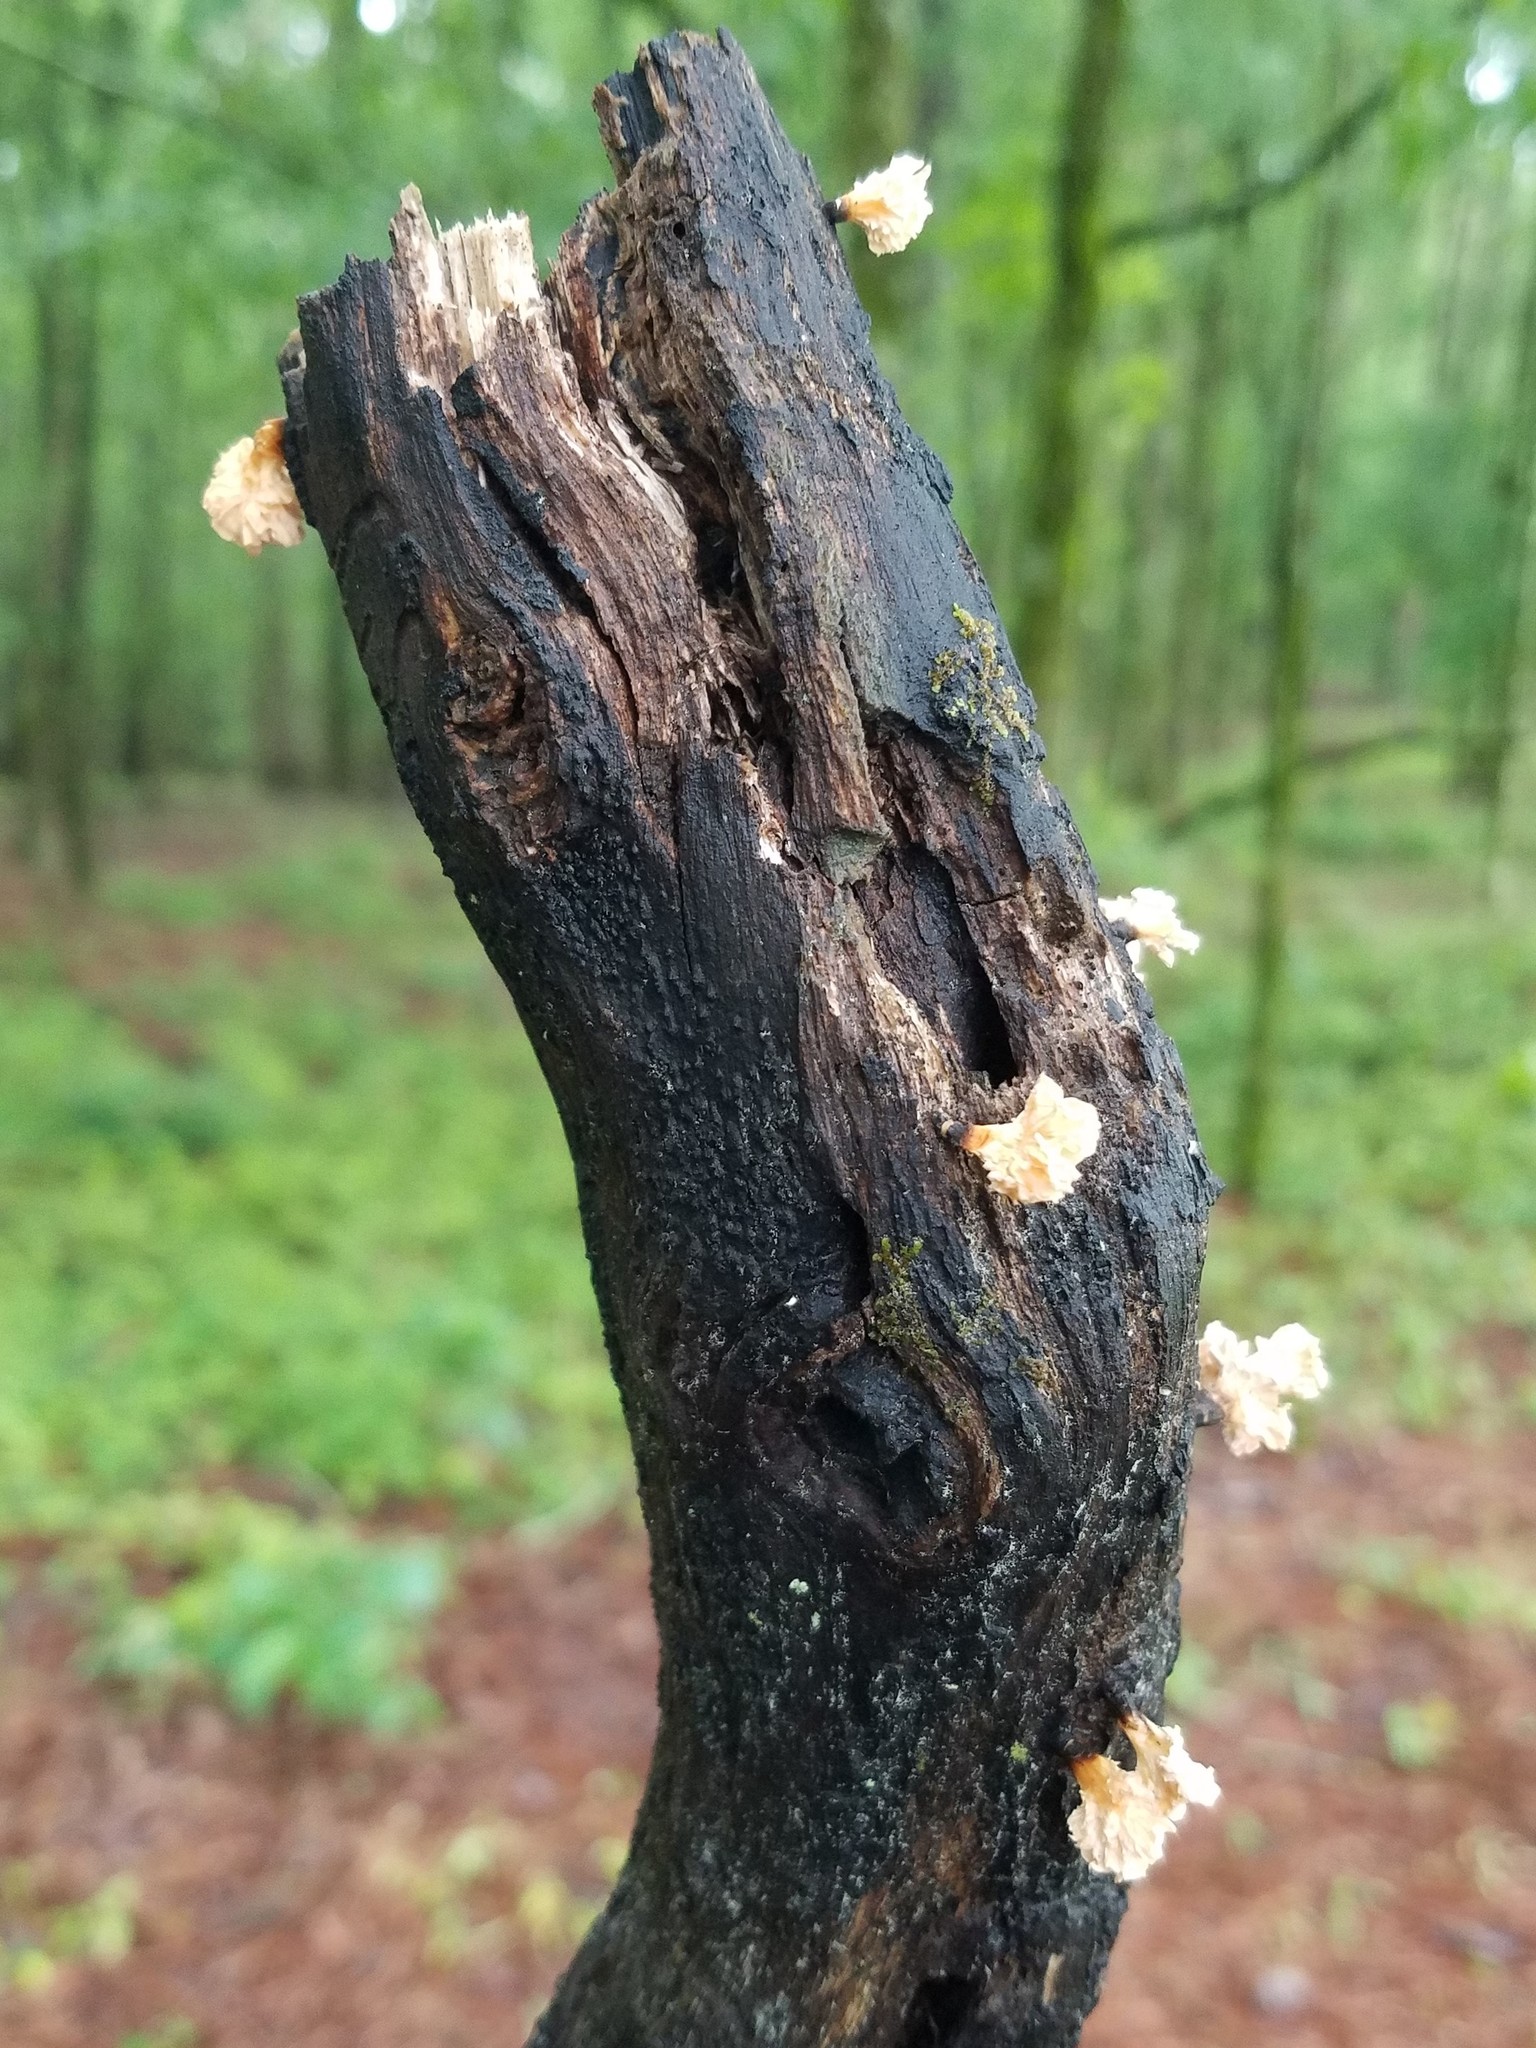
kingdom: Fungi
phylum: Ascomycota
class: Sordariomycetes
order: Xylariales
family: Xylariaceae
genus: Xylaria
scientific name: Xylaria cubensis
